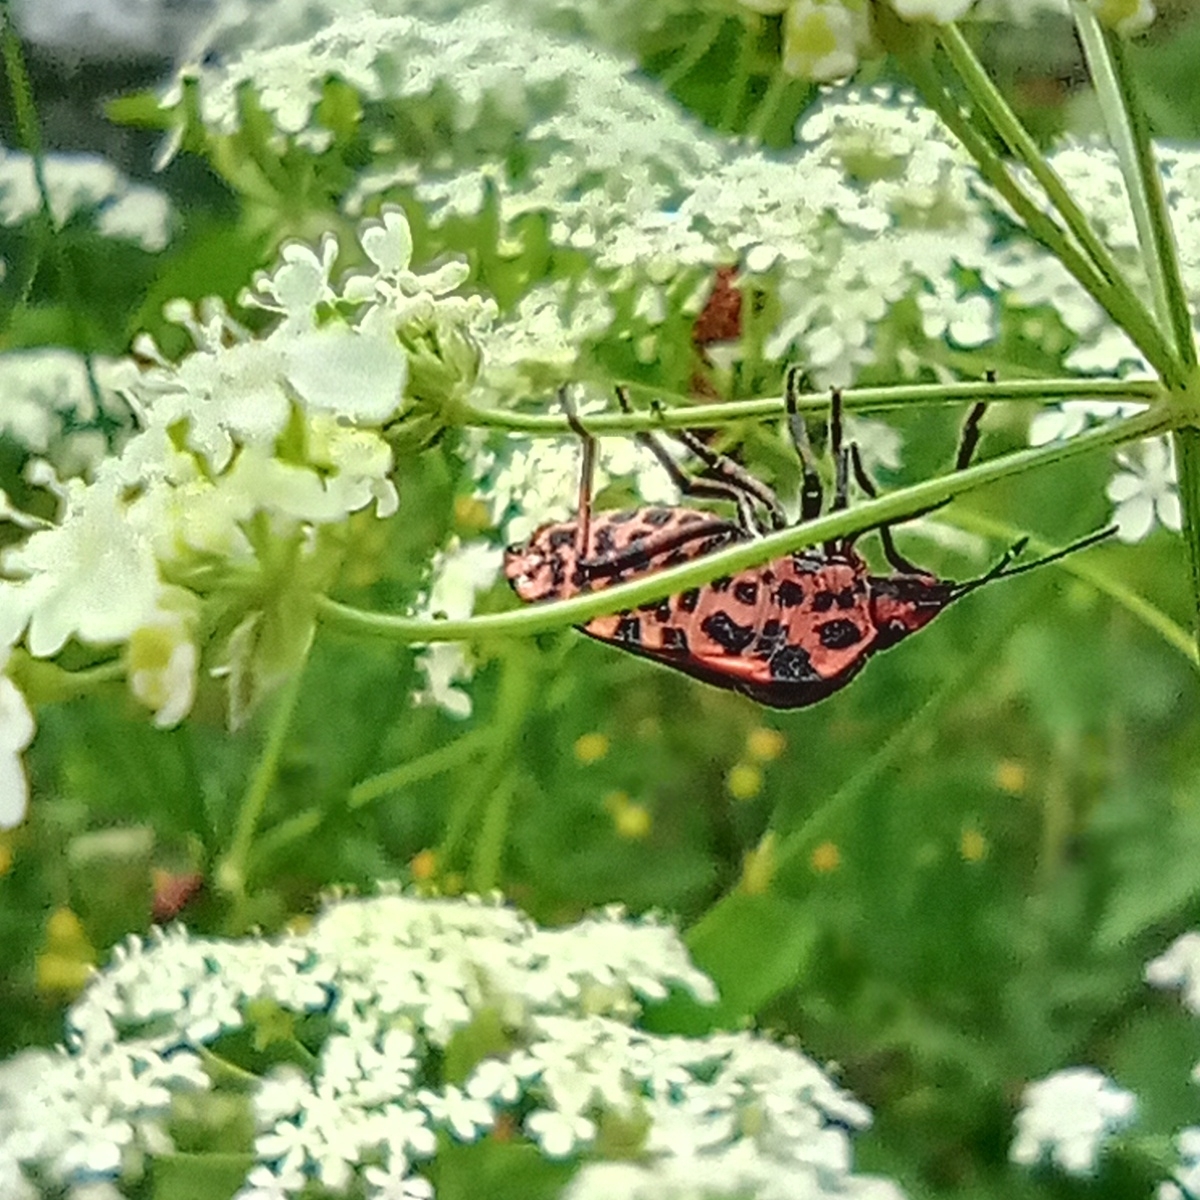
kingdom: Animalia
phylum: Arthropoda
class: Insecta
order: Hemiptera
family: Pentatomidae
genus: Graphosoma
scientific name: Graphosoma italicum
